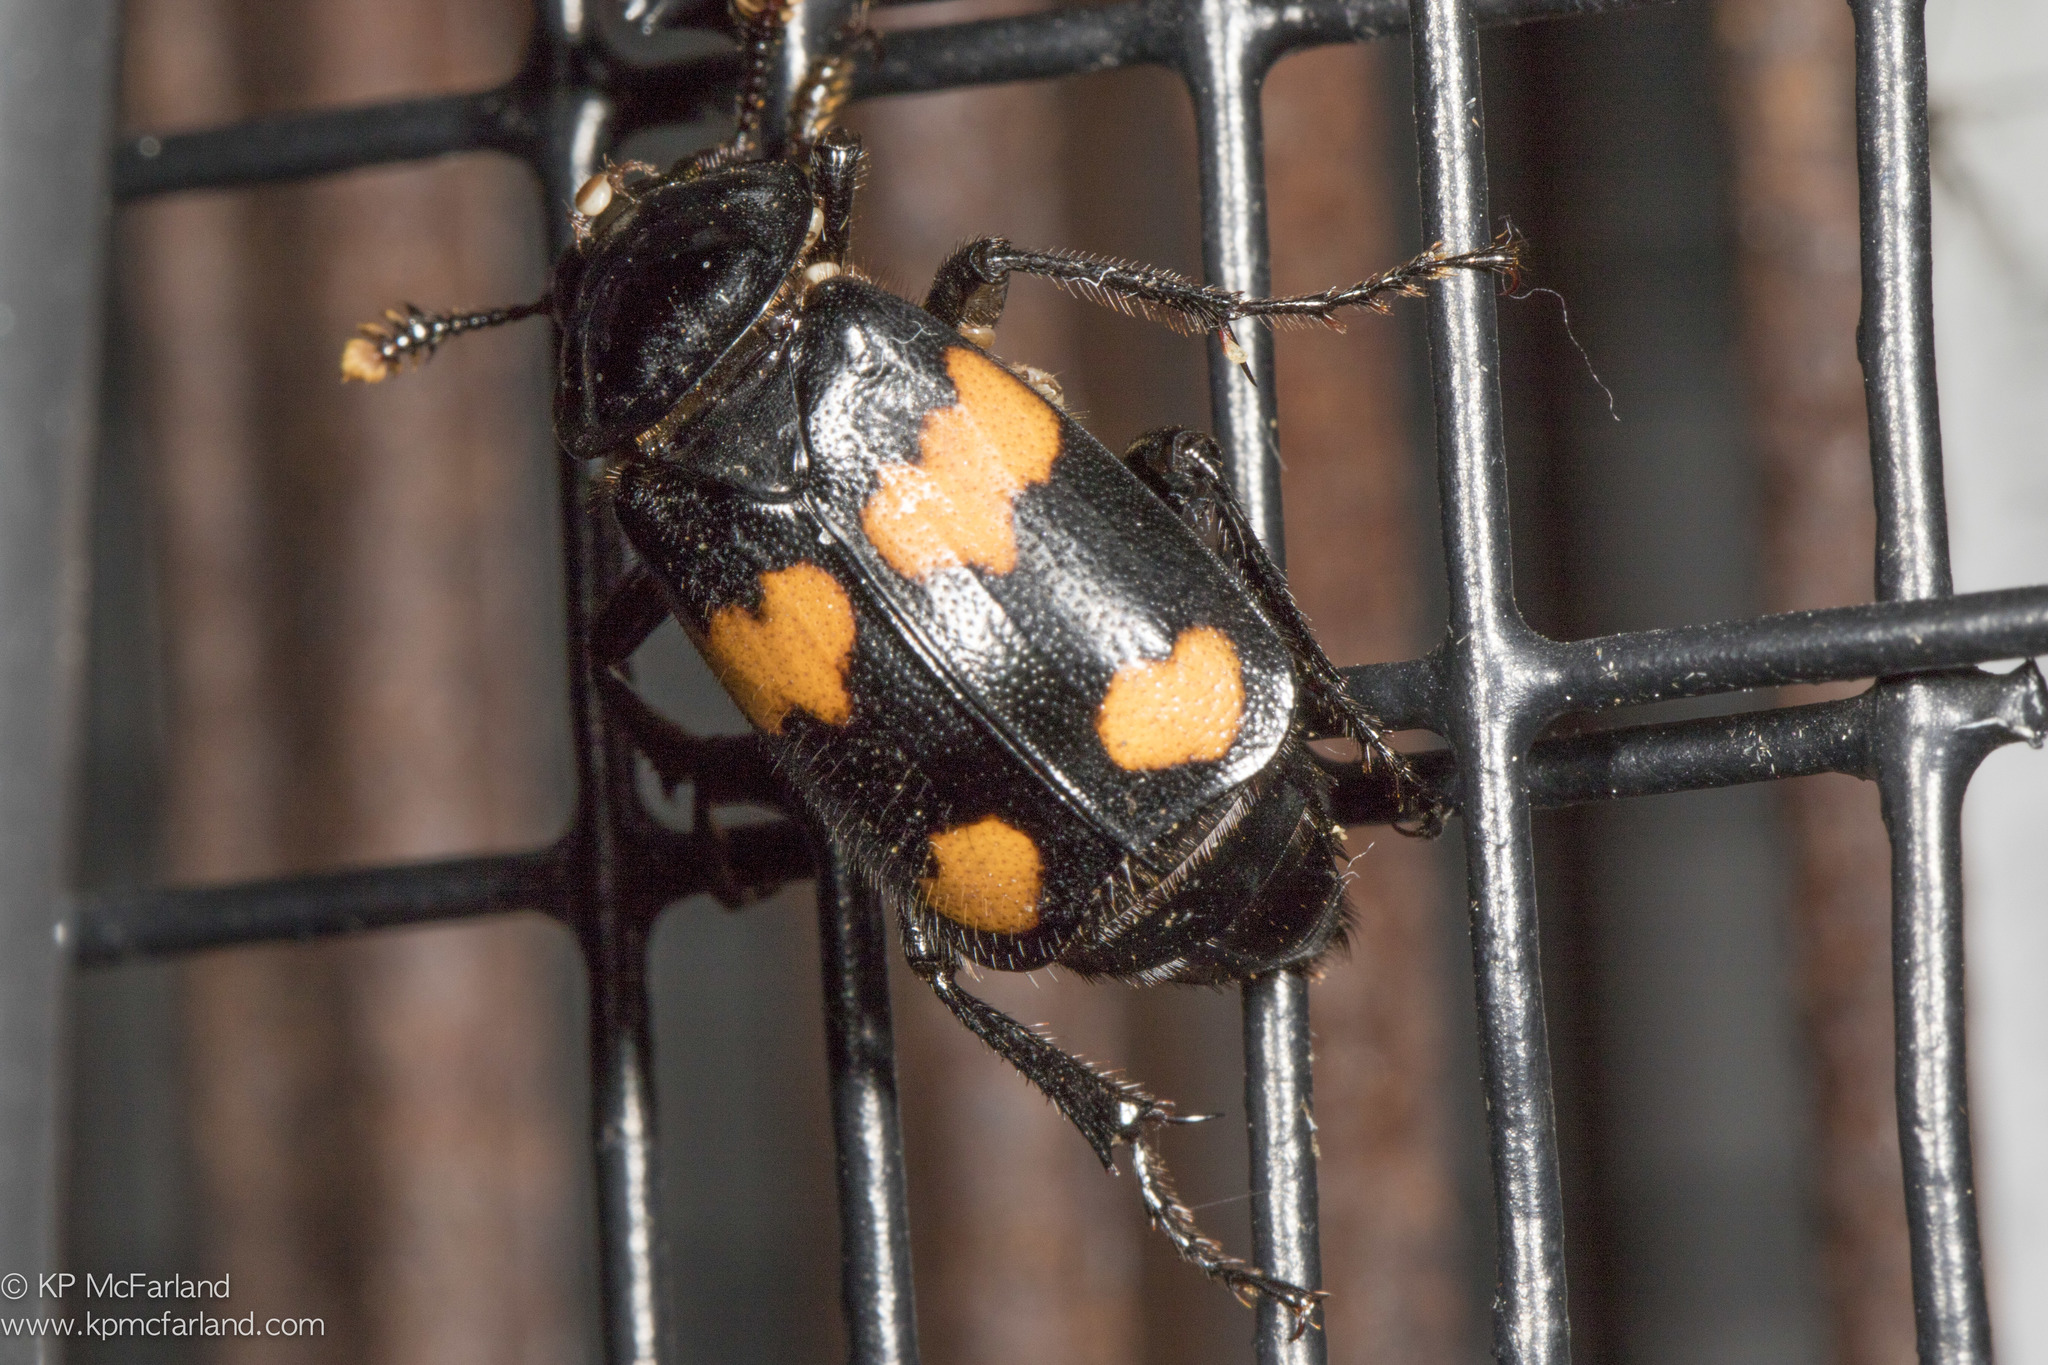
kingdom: Animalia
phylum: Arthropoda
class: Insecta
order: Coleoptera
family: Staphylinidae
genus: Nicrophorus
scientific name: Nicrophorus orbicollis
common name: Roundneck sexton beetle
